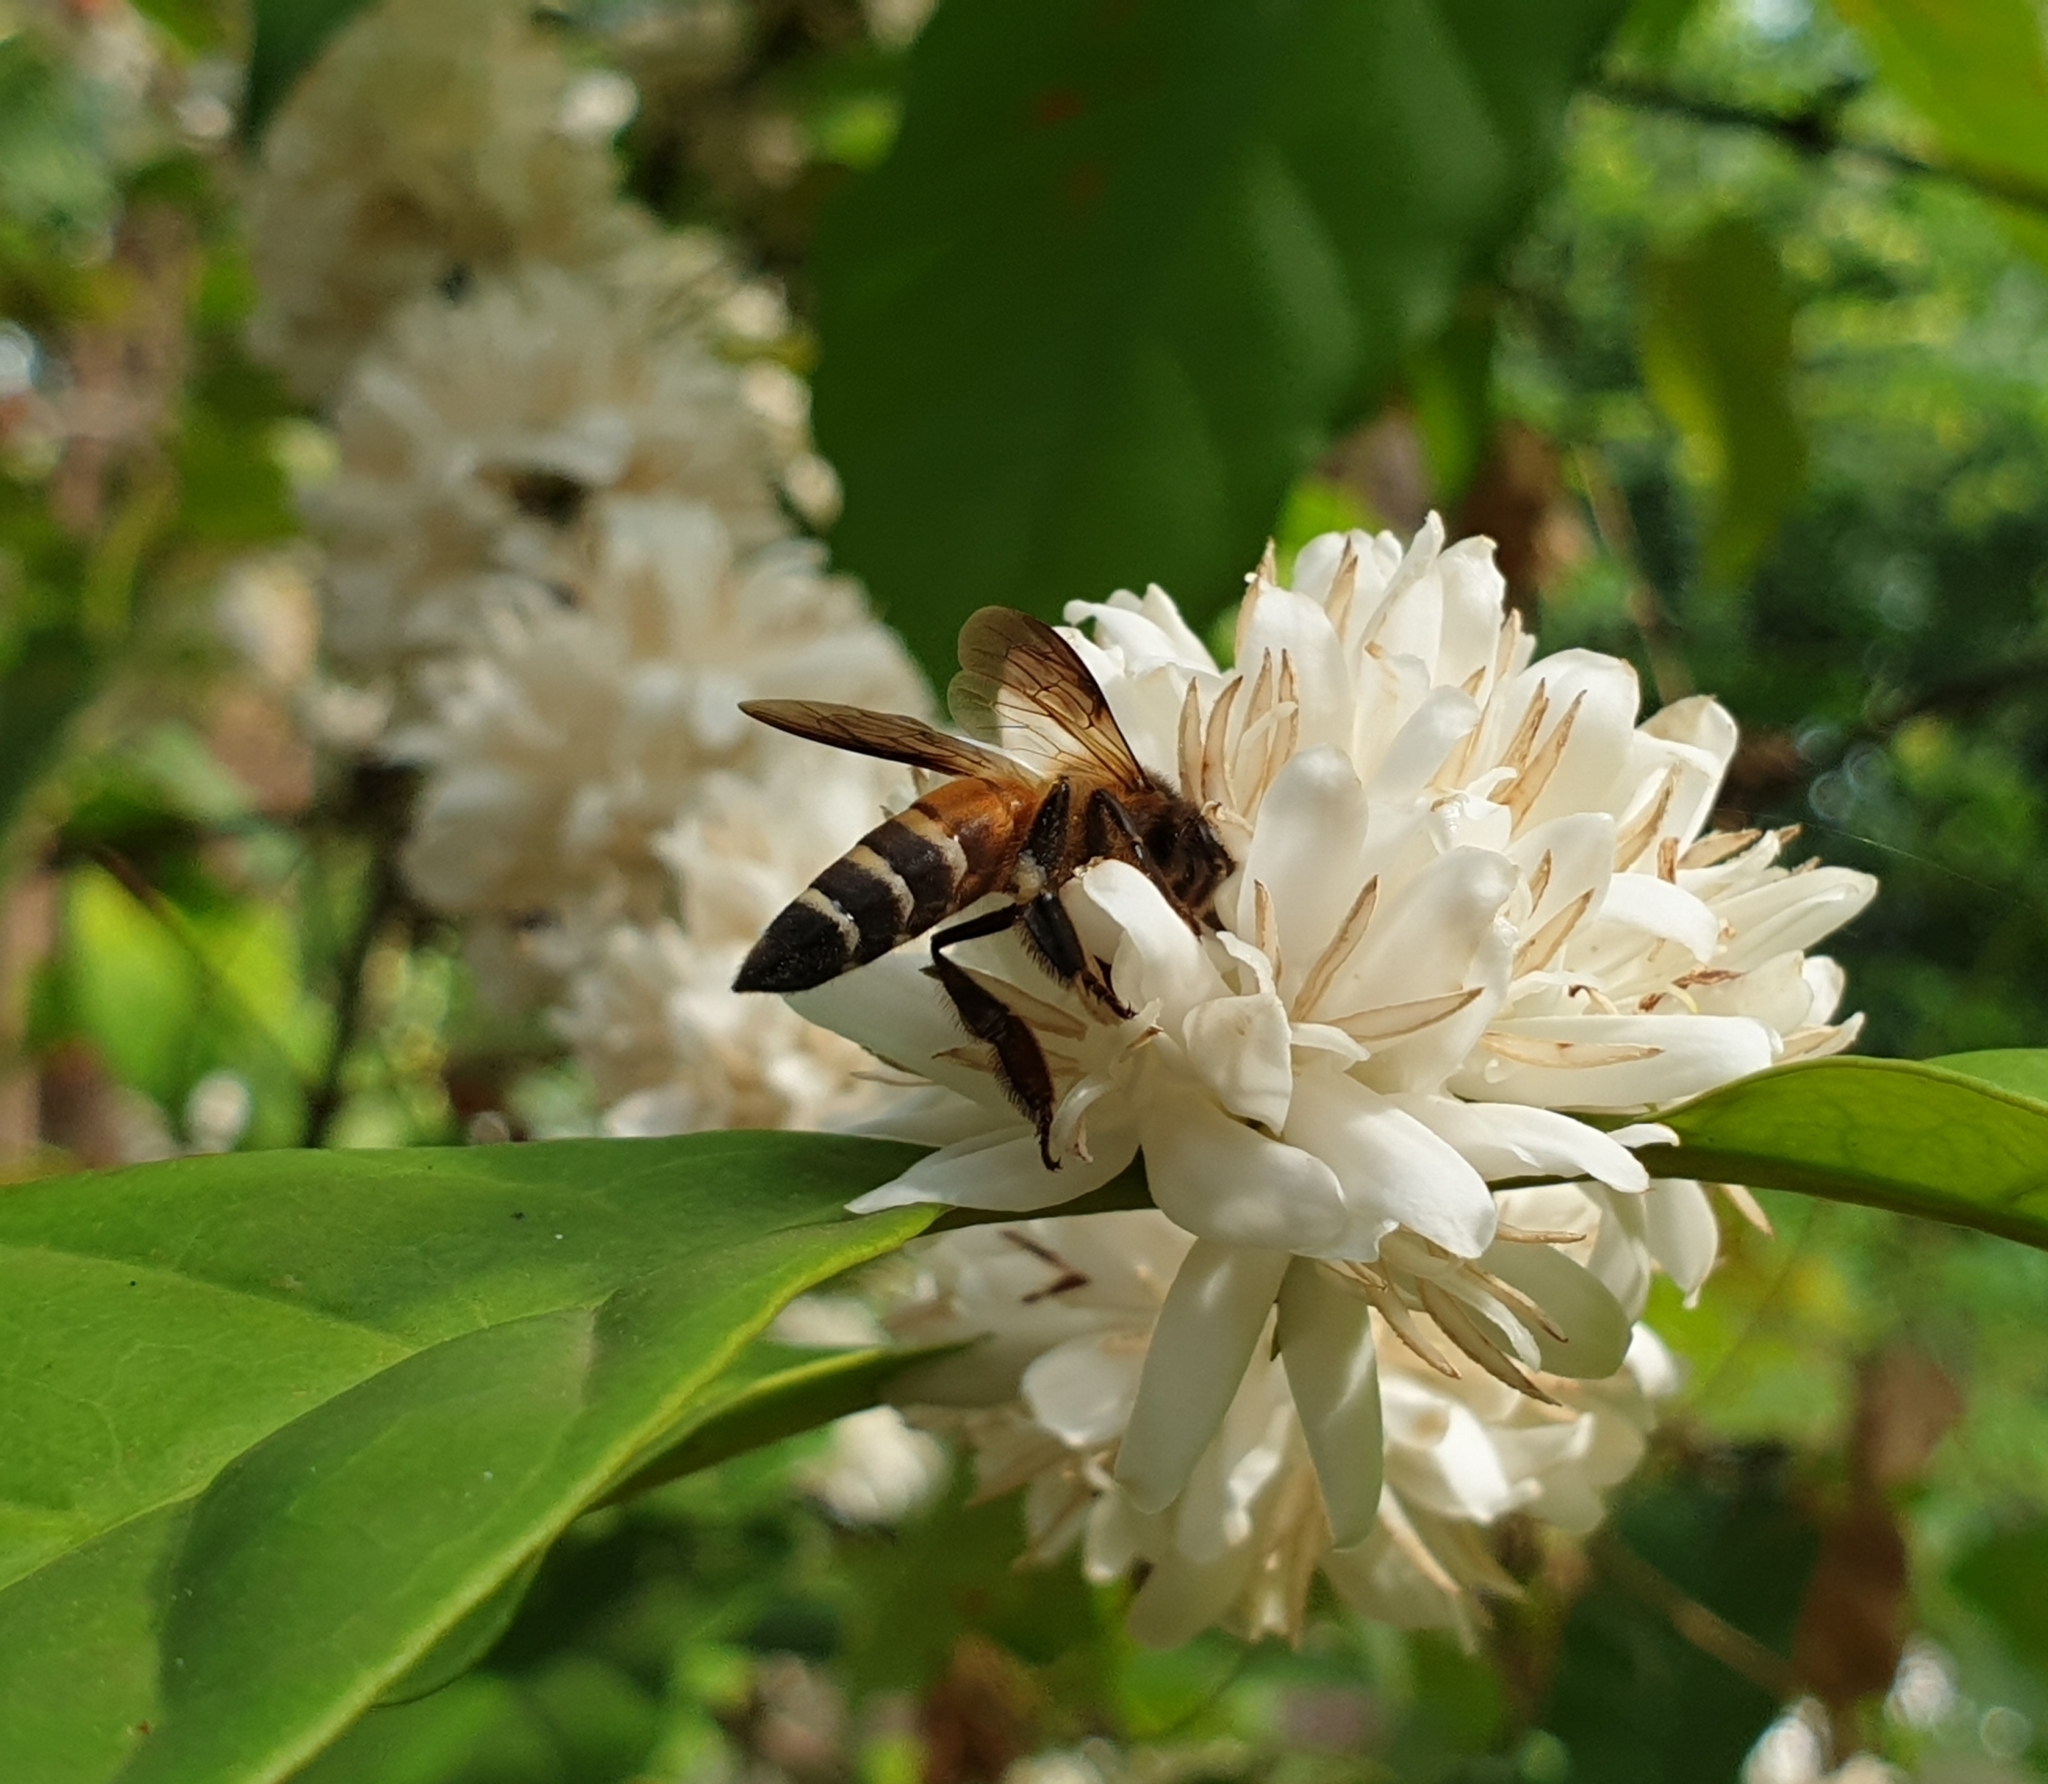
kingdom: Animalia
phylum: Arthropoda
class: Insecta
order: Hymenoptera
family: Apidae
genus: Apis
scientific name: Apis dorsata
